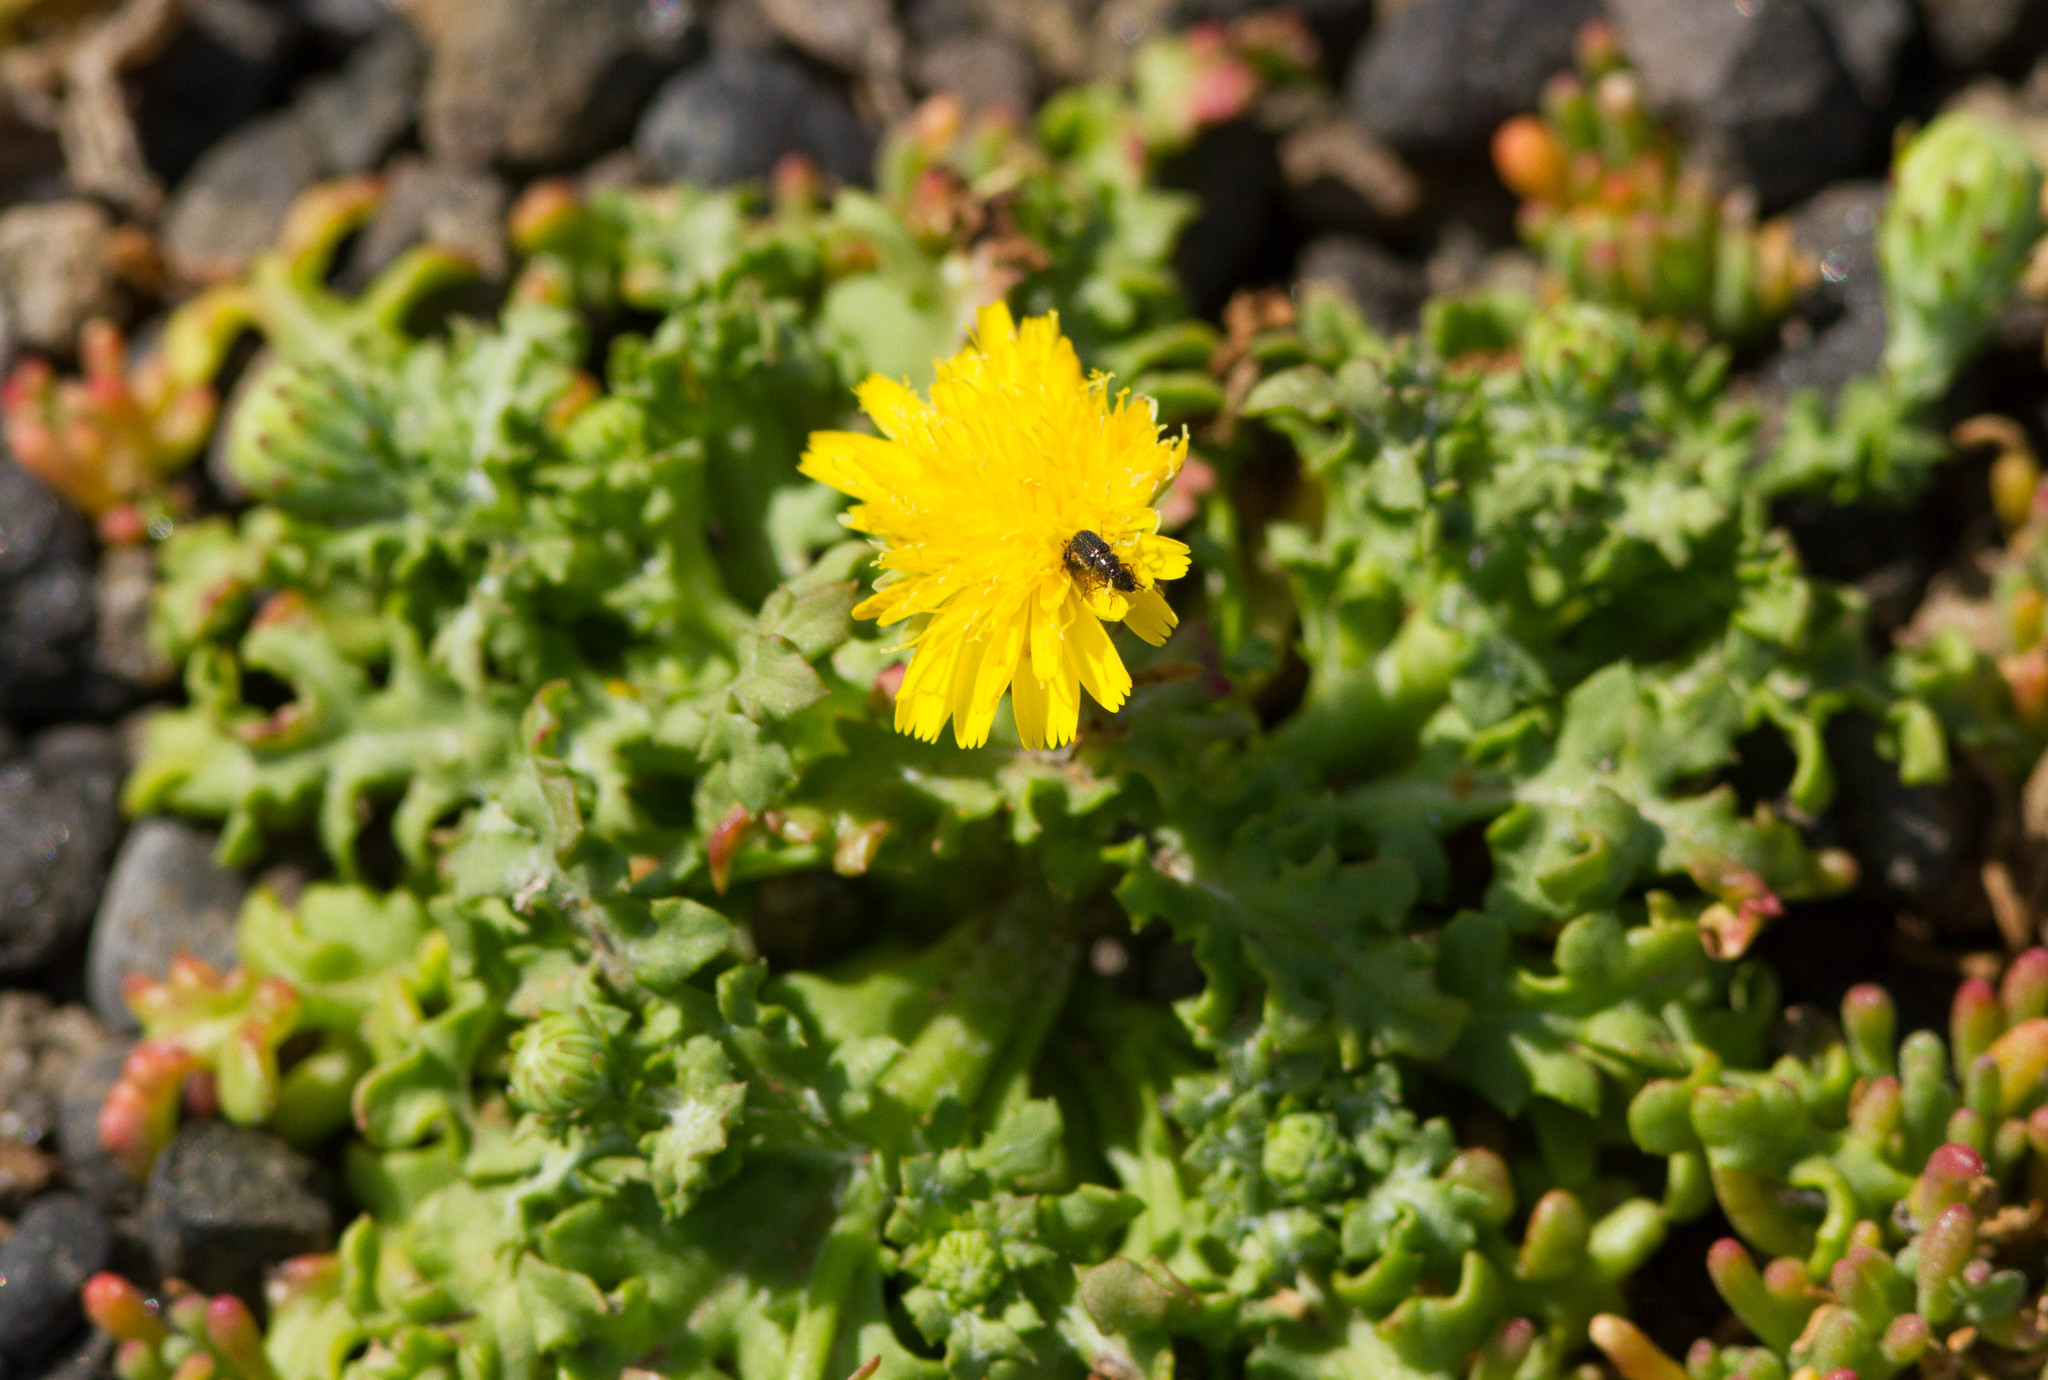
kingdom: Plantae
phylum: Tracheophyta
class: Magnoliopsida
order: Asterales
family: Asteraceae
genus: Malacothrix
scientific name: Malacothrix foliosa
